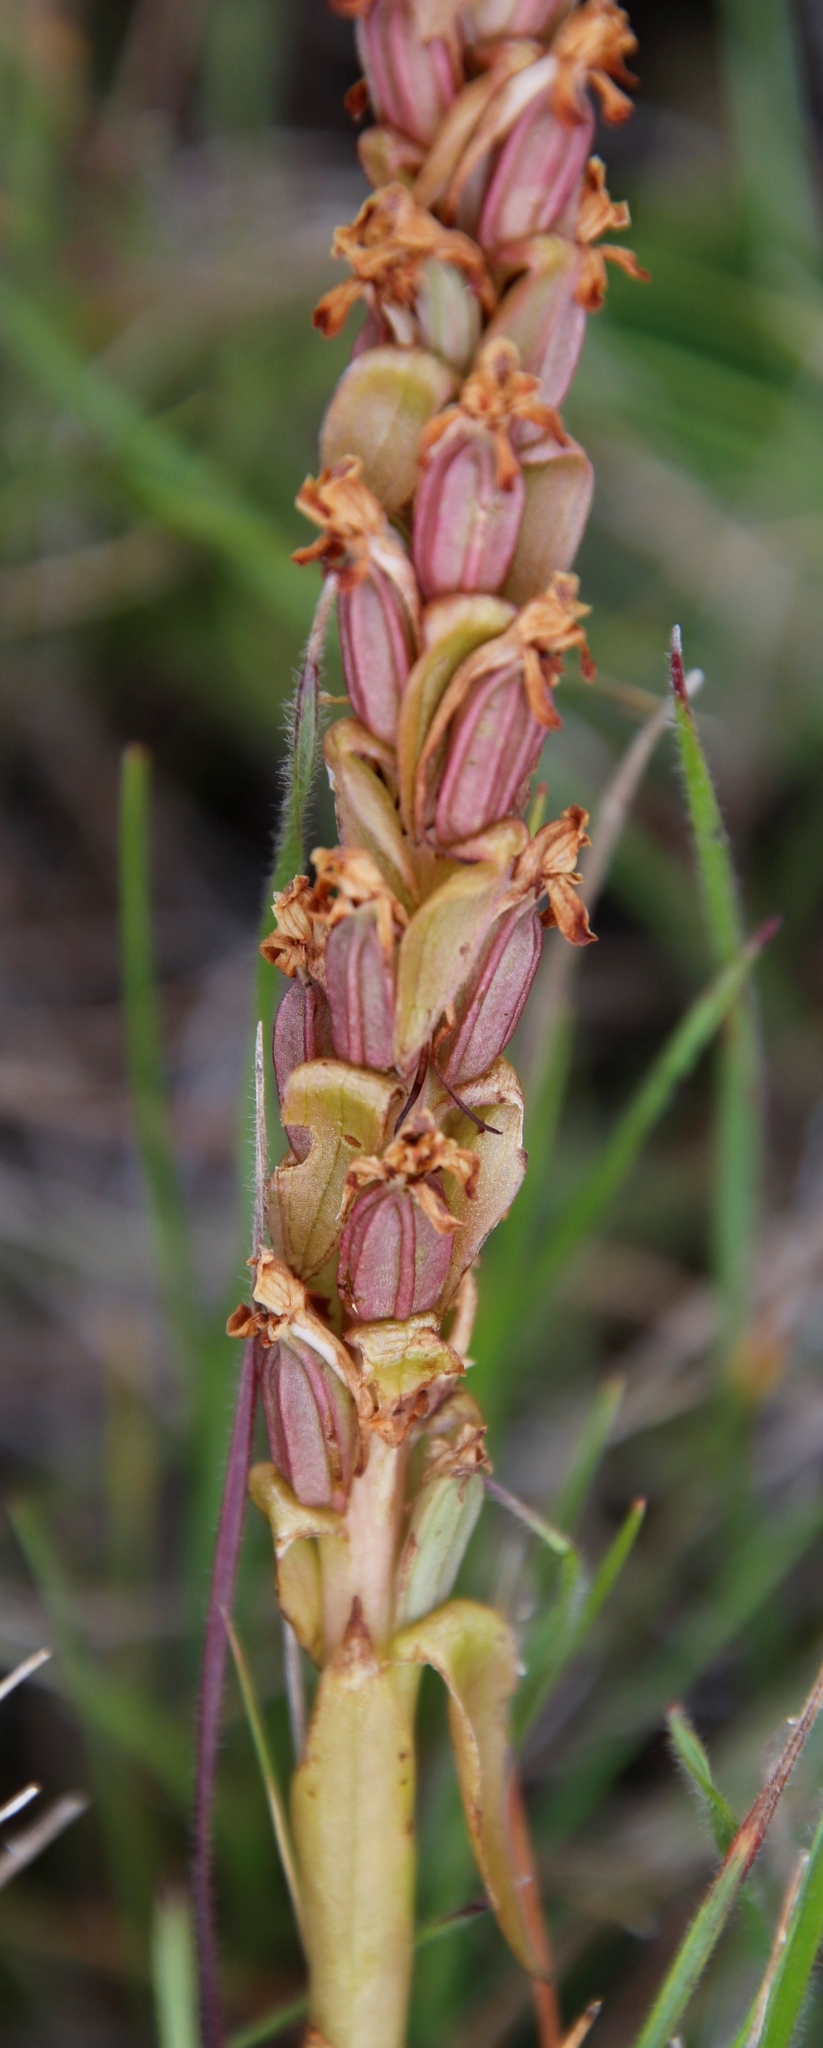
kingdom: Plantae
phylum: Tracheophyta
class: Liliopsida
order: Asparagales
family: Orchidaceae
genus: Satyrium
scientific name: Satyrium longicauda
